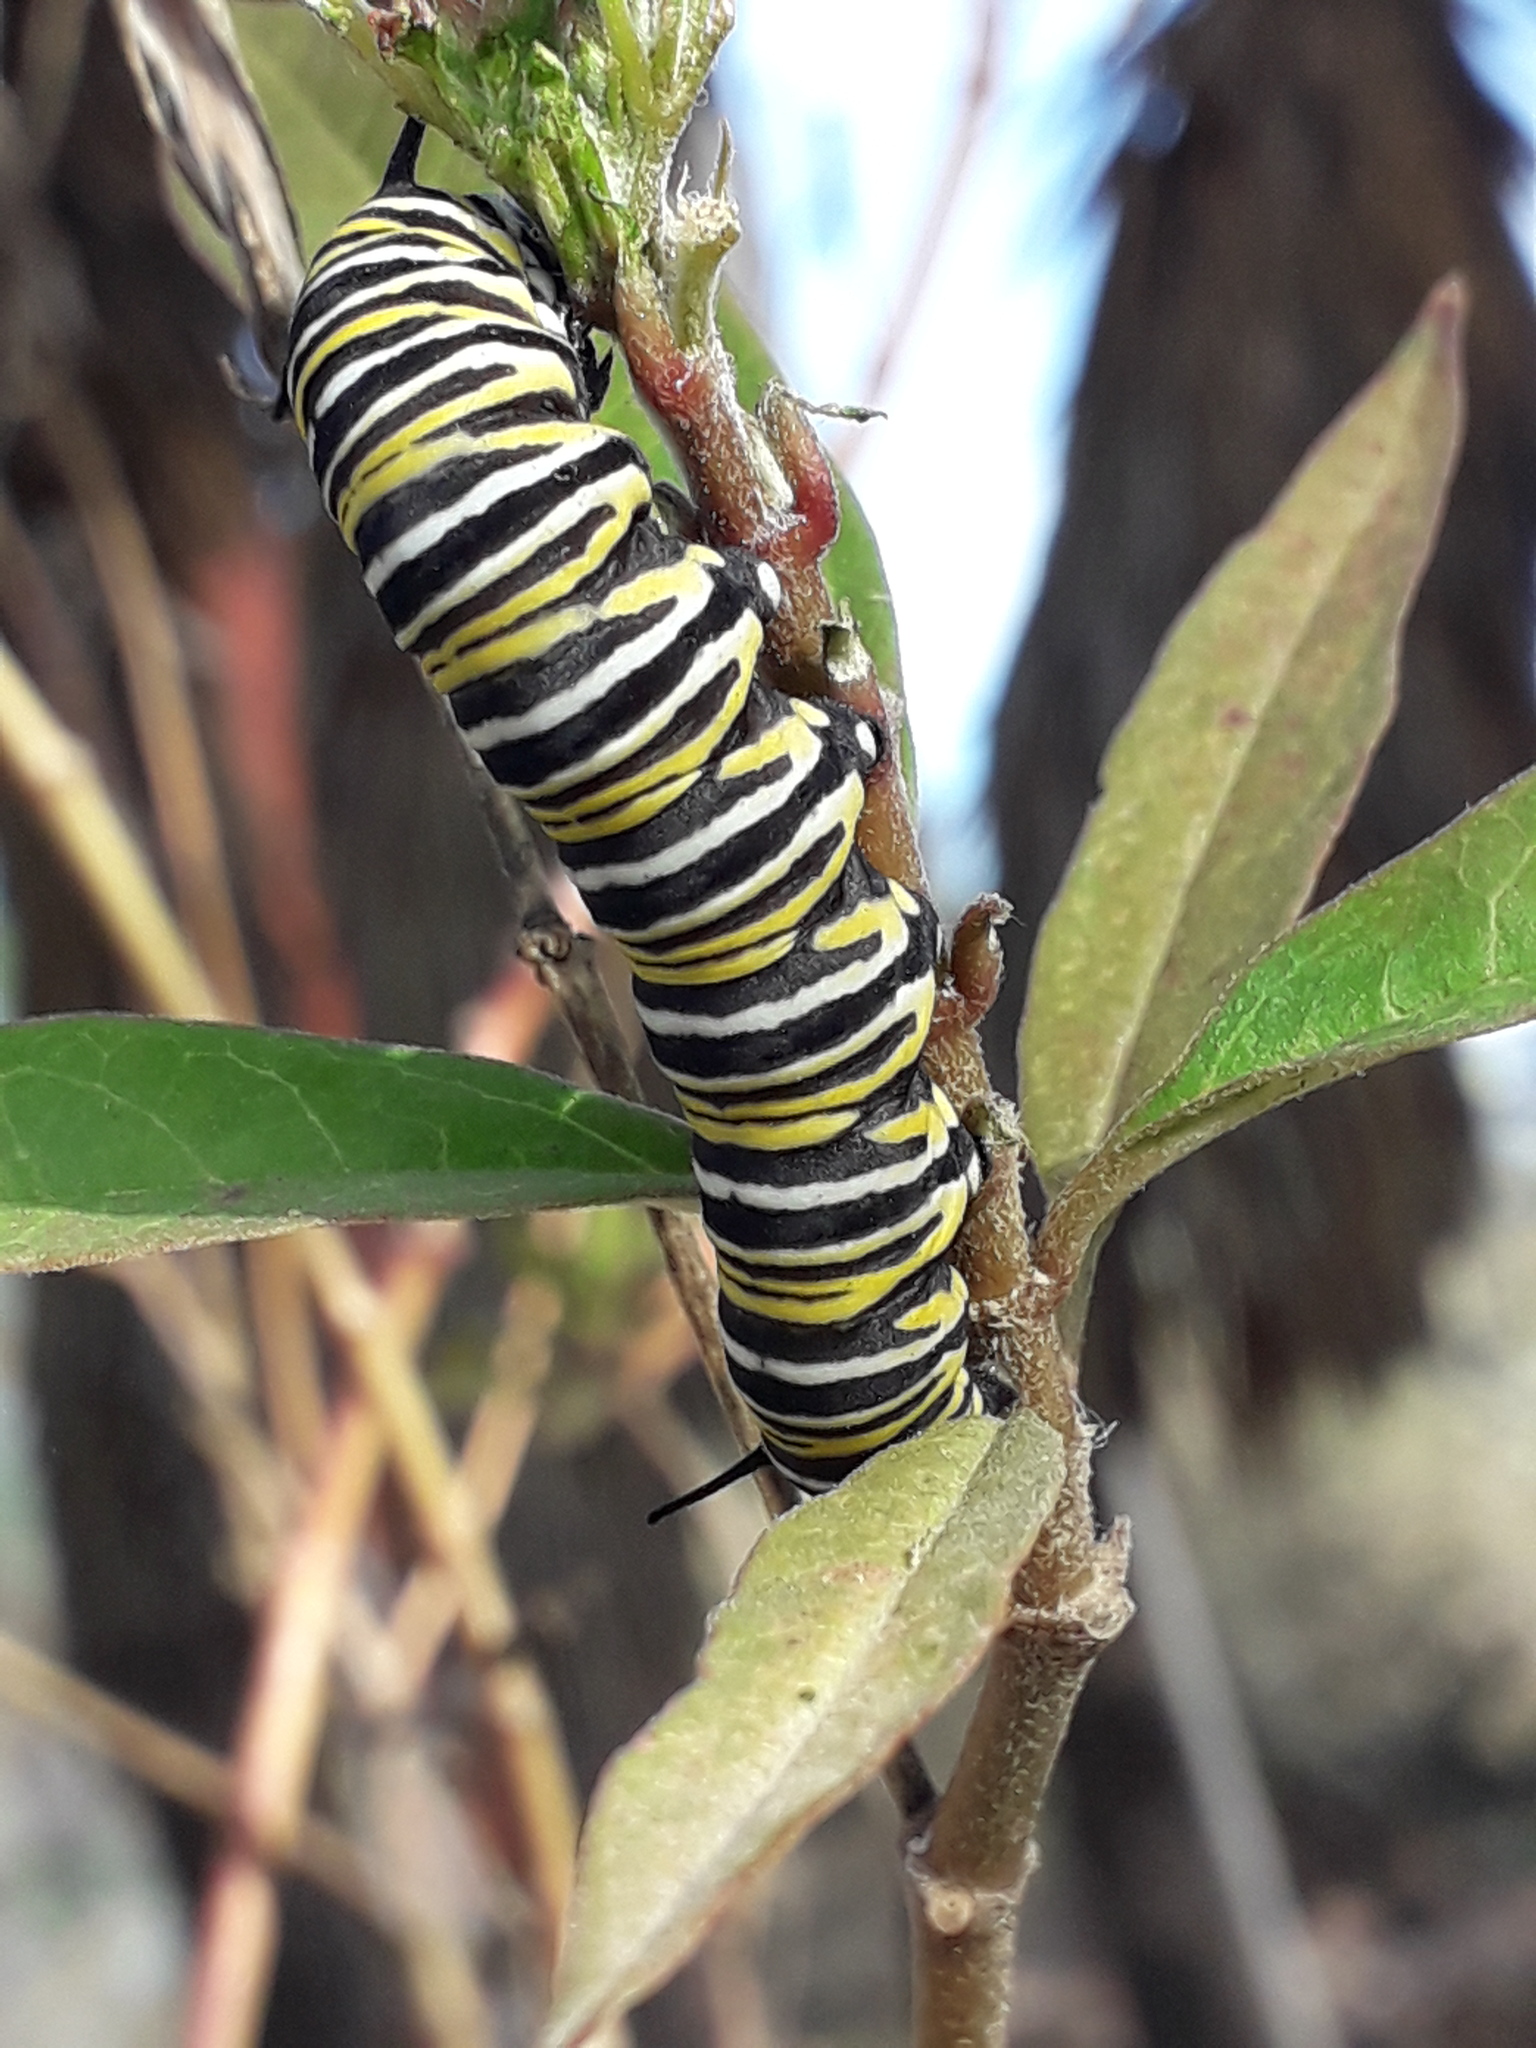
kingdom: Animalia
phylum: Arthropoda
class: Insecta
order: Lepidoptera
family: Nymphalidae
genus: Danaus
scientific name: Danaus plexippus
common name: Monarch
